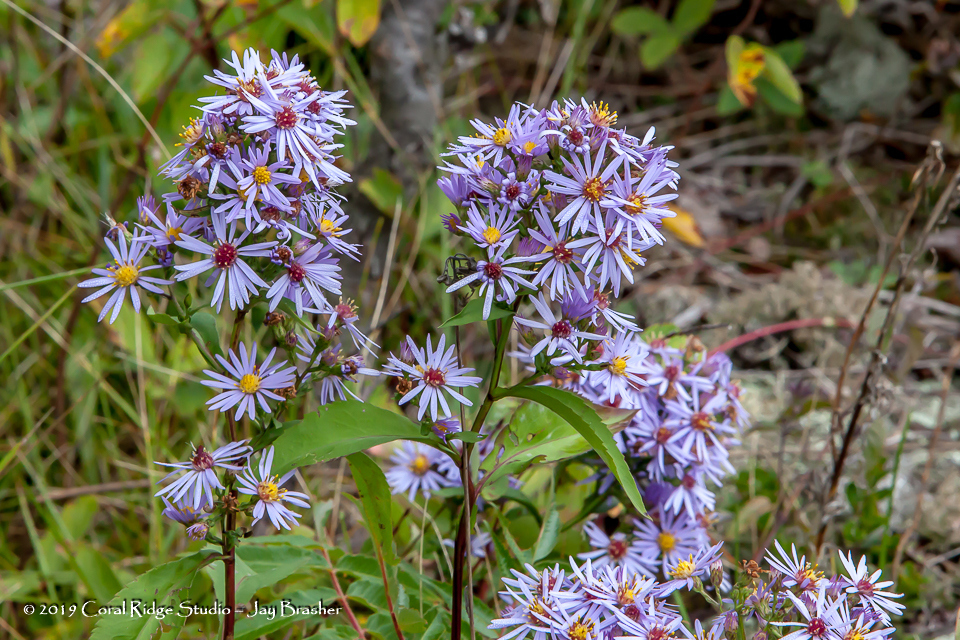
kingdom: Plantae
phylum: Tracheophyta
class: Magnoliopsida
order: Asterales
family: Asteraceae
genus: Eurybia
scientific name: Eurybia macrophylla
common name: Big-leaved aster
